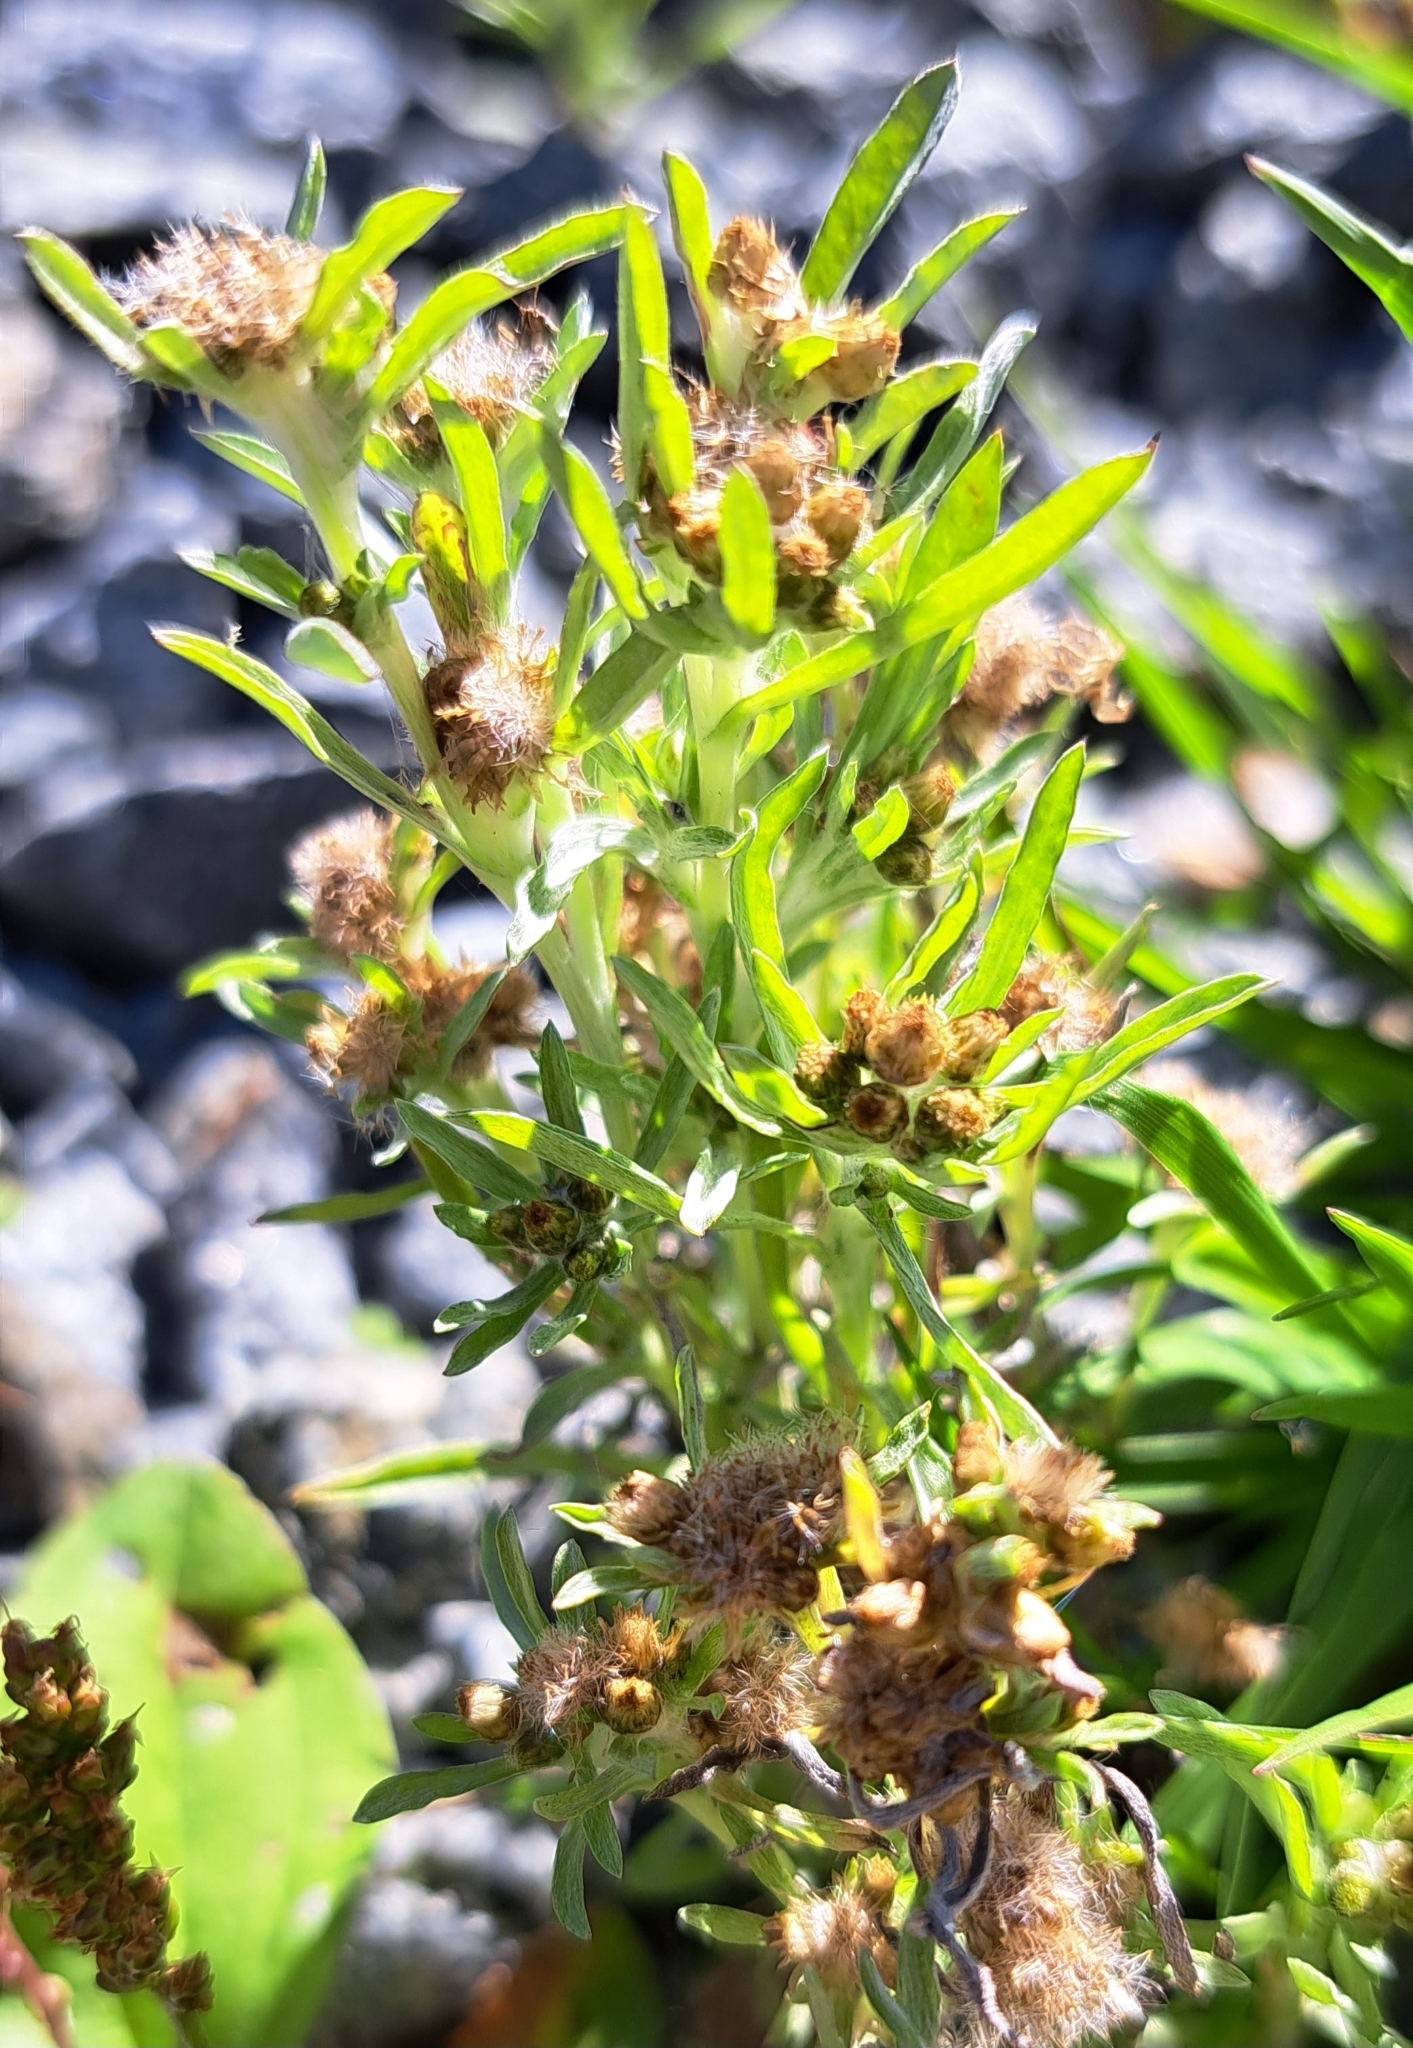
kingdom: Plantae
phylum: Tracheophyta
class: Magnoliopsida
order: Asterales
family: Asteraceae
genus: Gnaphalium
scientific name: Gnaphalium uliginosum
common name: Marsh cudweed
